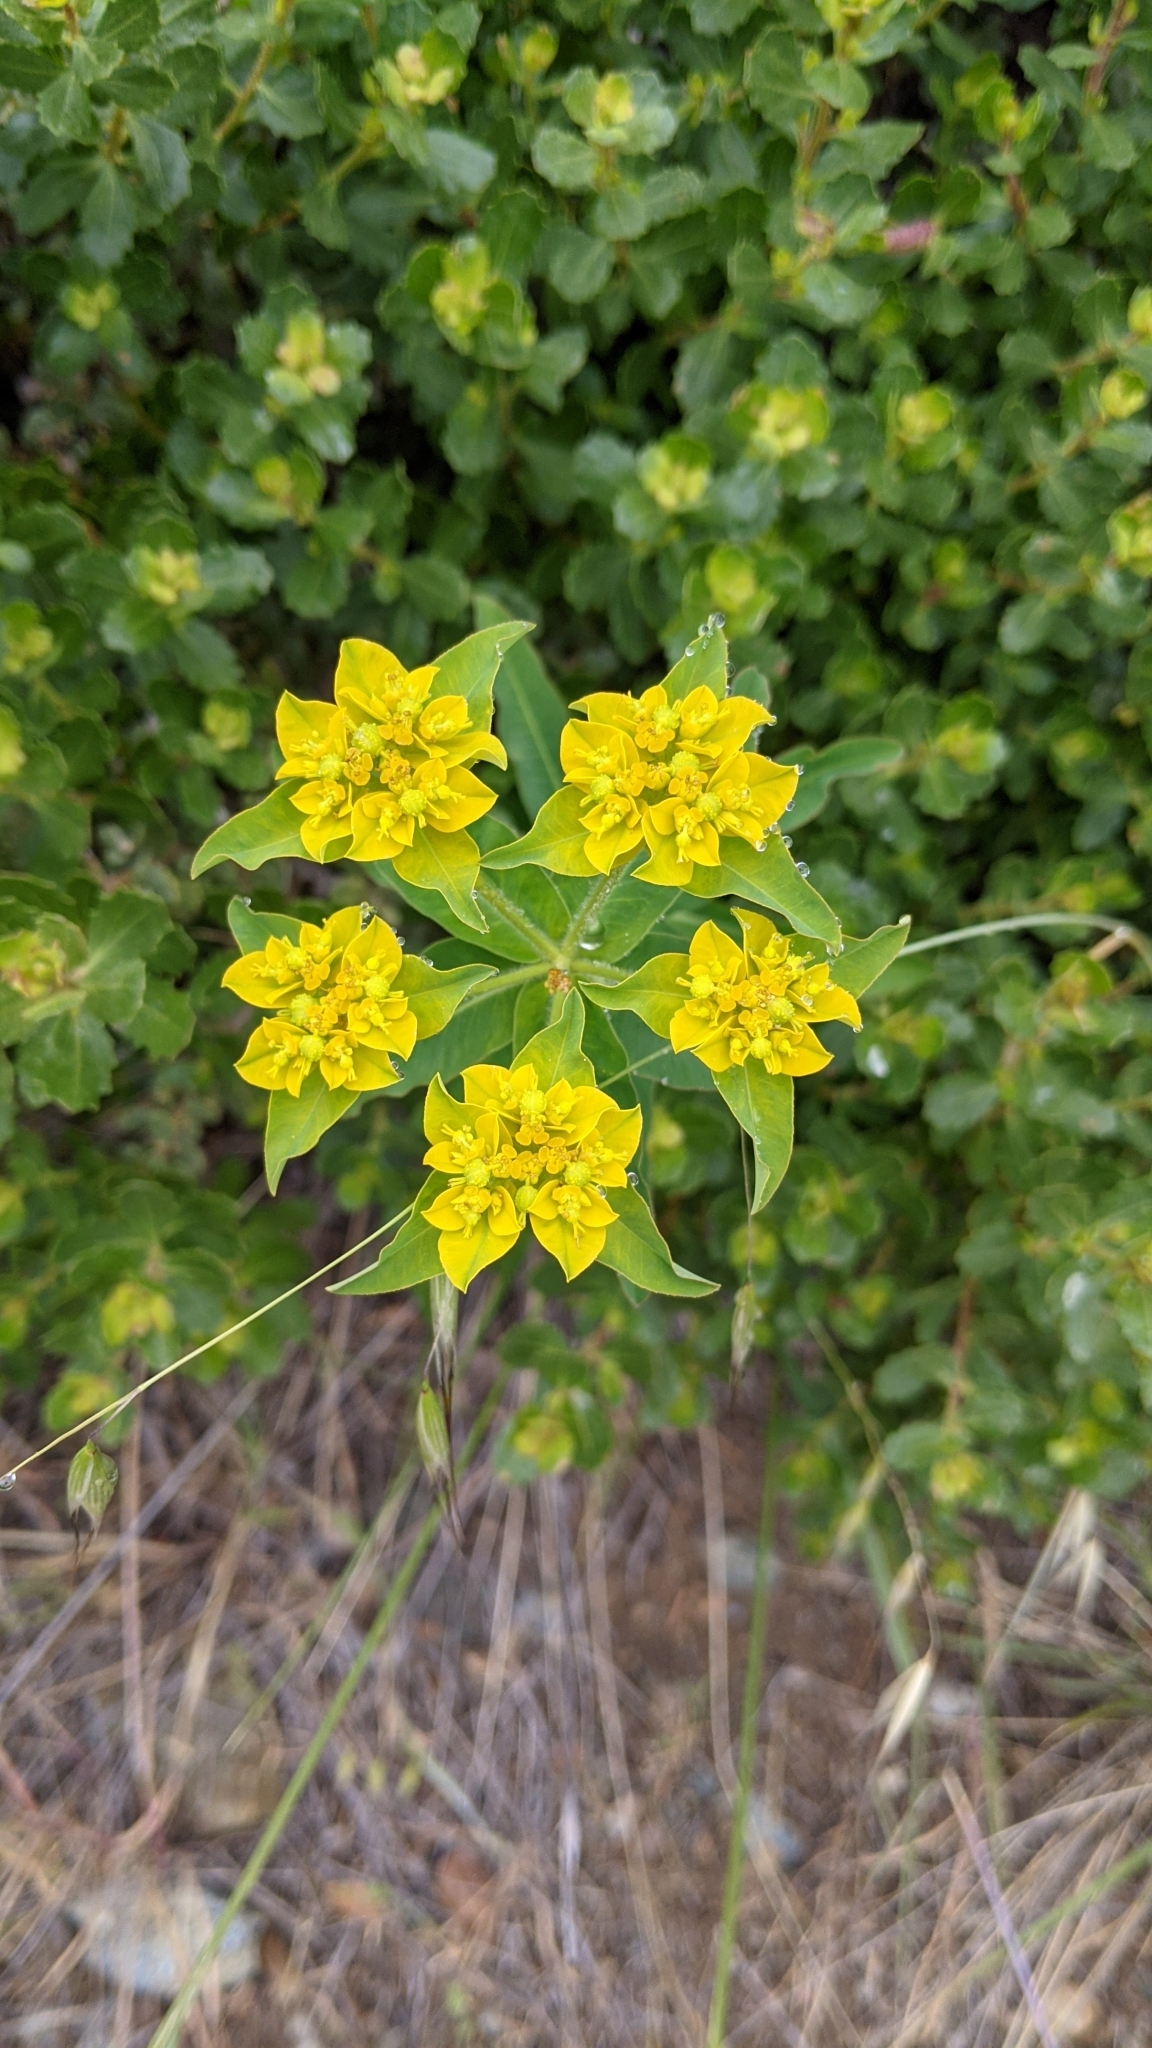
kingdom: Plantae
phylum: Tracheophyta
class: Magnoliopsida
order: Malpighiales
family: Euphorbiaceae
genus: Euphorbia
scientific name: Euphorbia oblongata
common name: Balkan spurge
